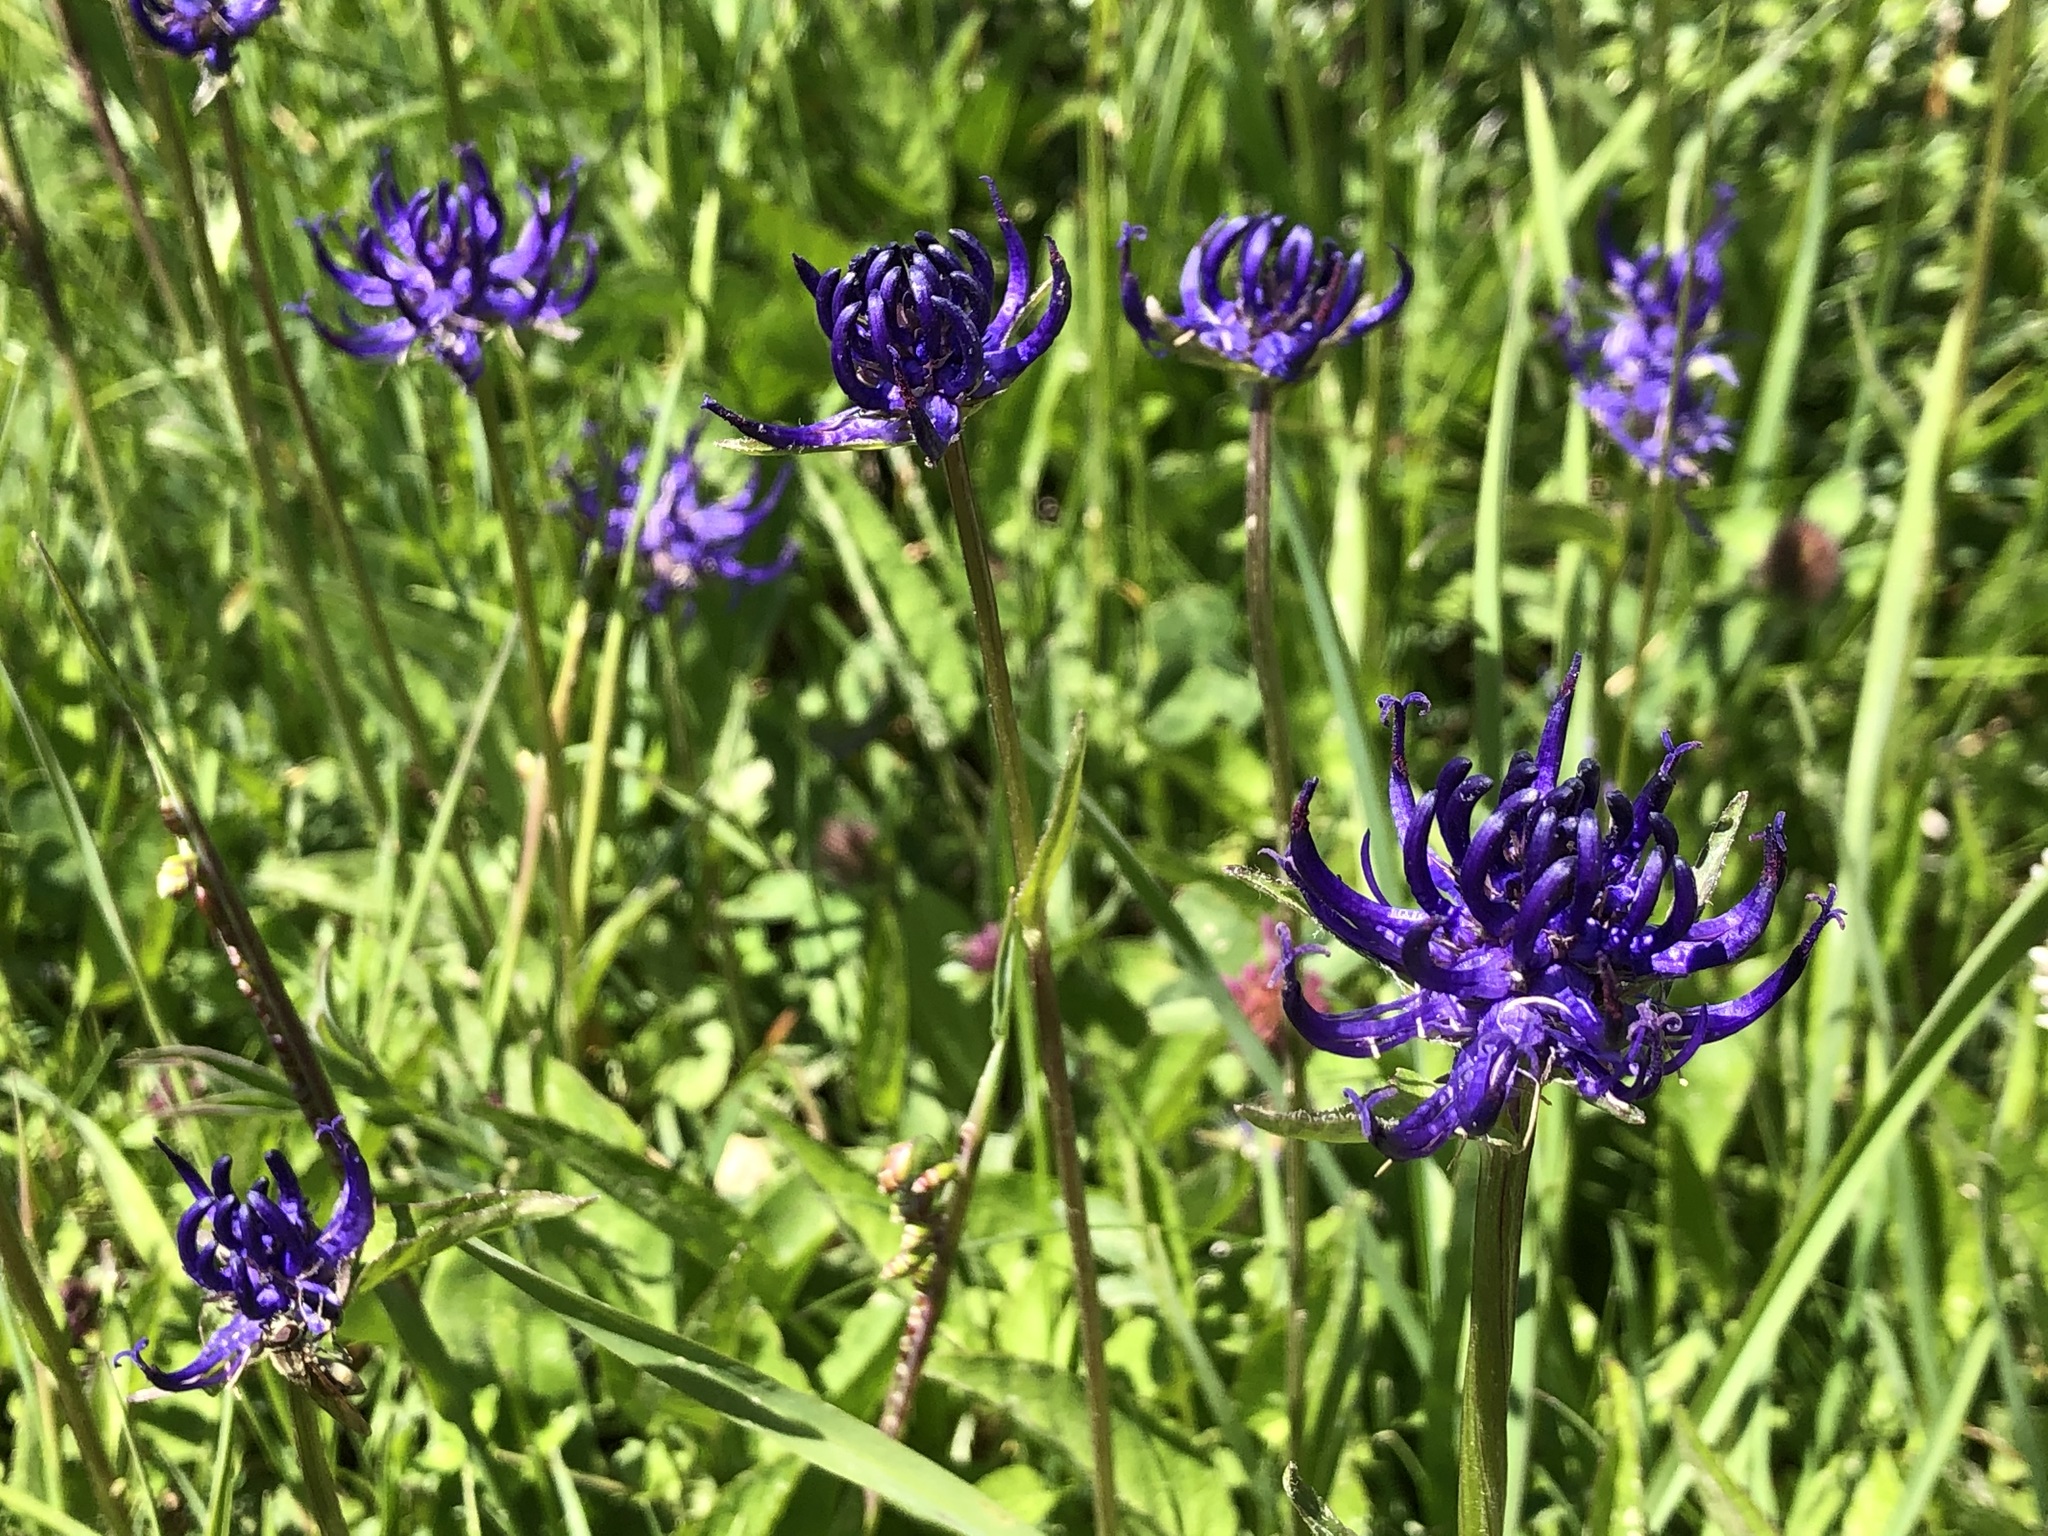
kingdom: Plantae
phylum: Tracheophyta
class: Magnoliopsida
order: Asterales
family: Campanulaceae
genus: Phyteuma
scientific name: Phyteuma orbiculare
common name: Round-headed rampion
